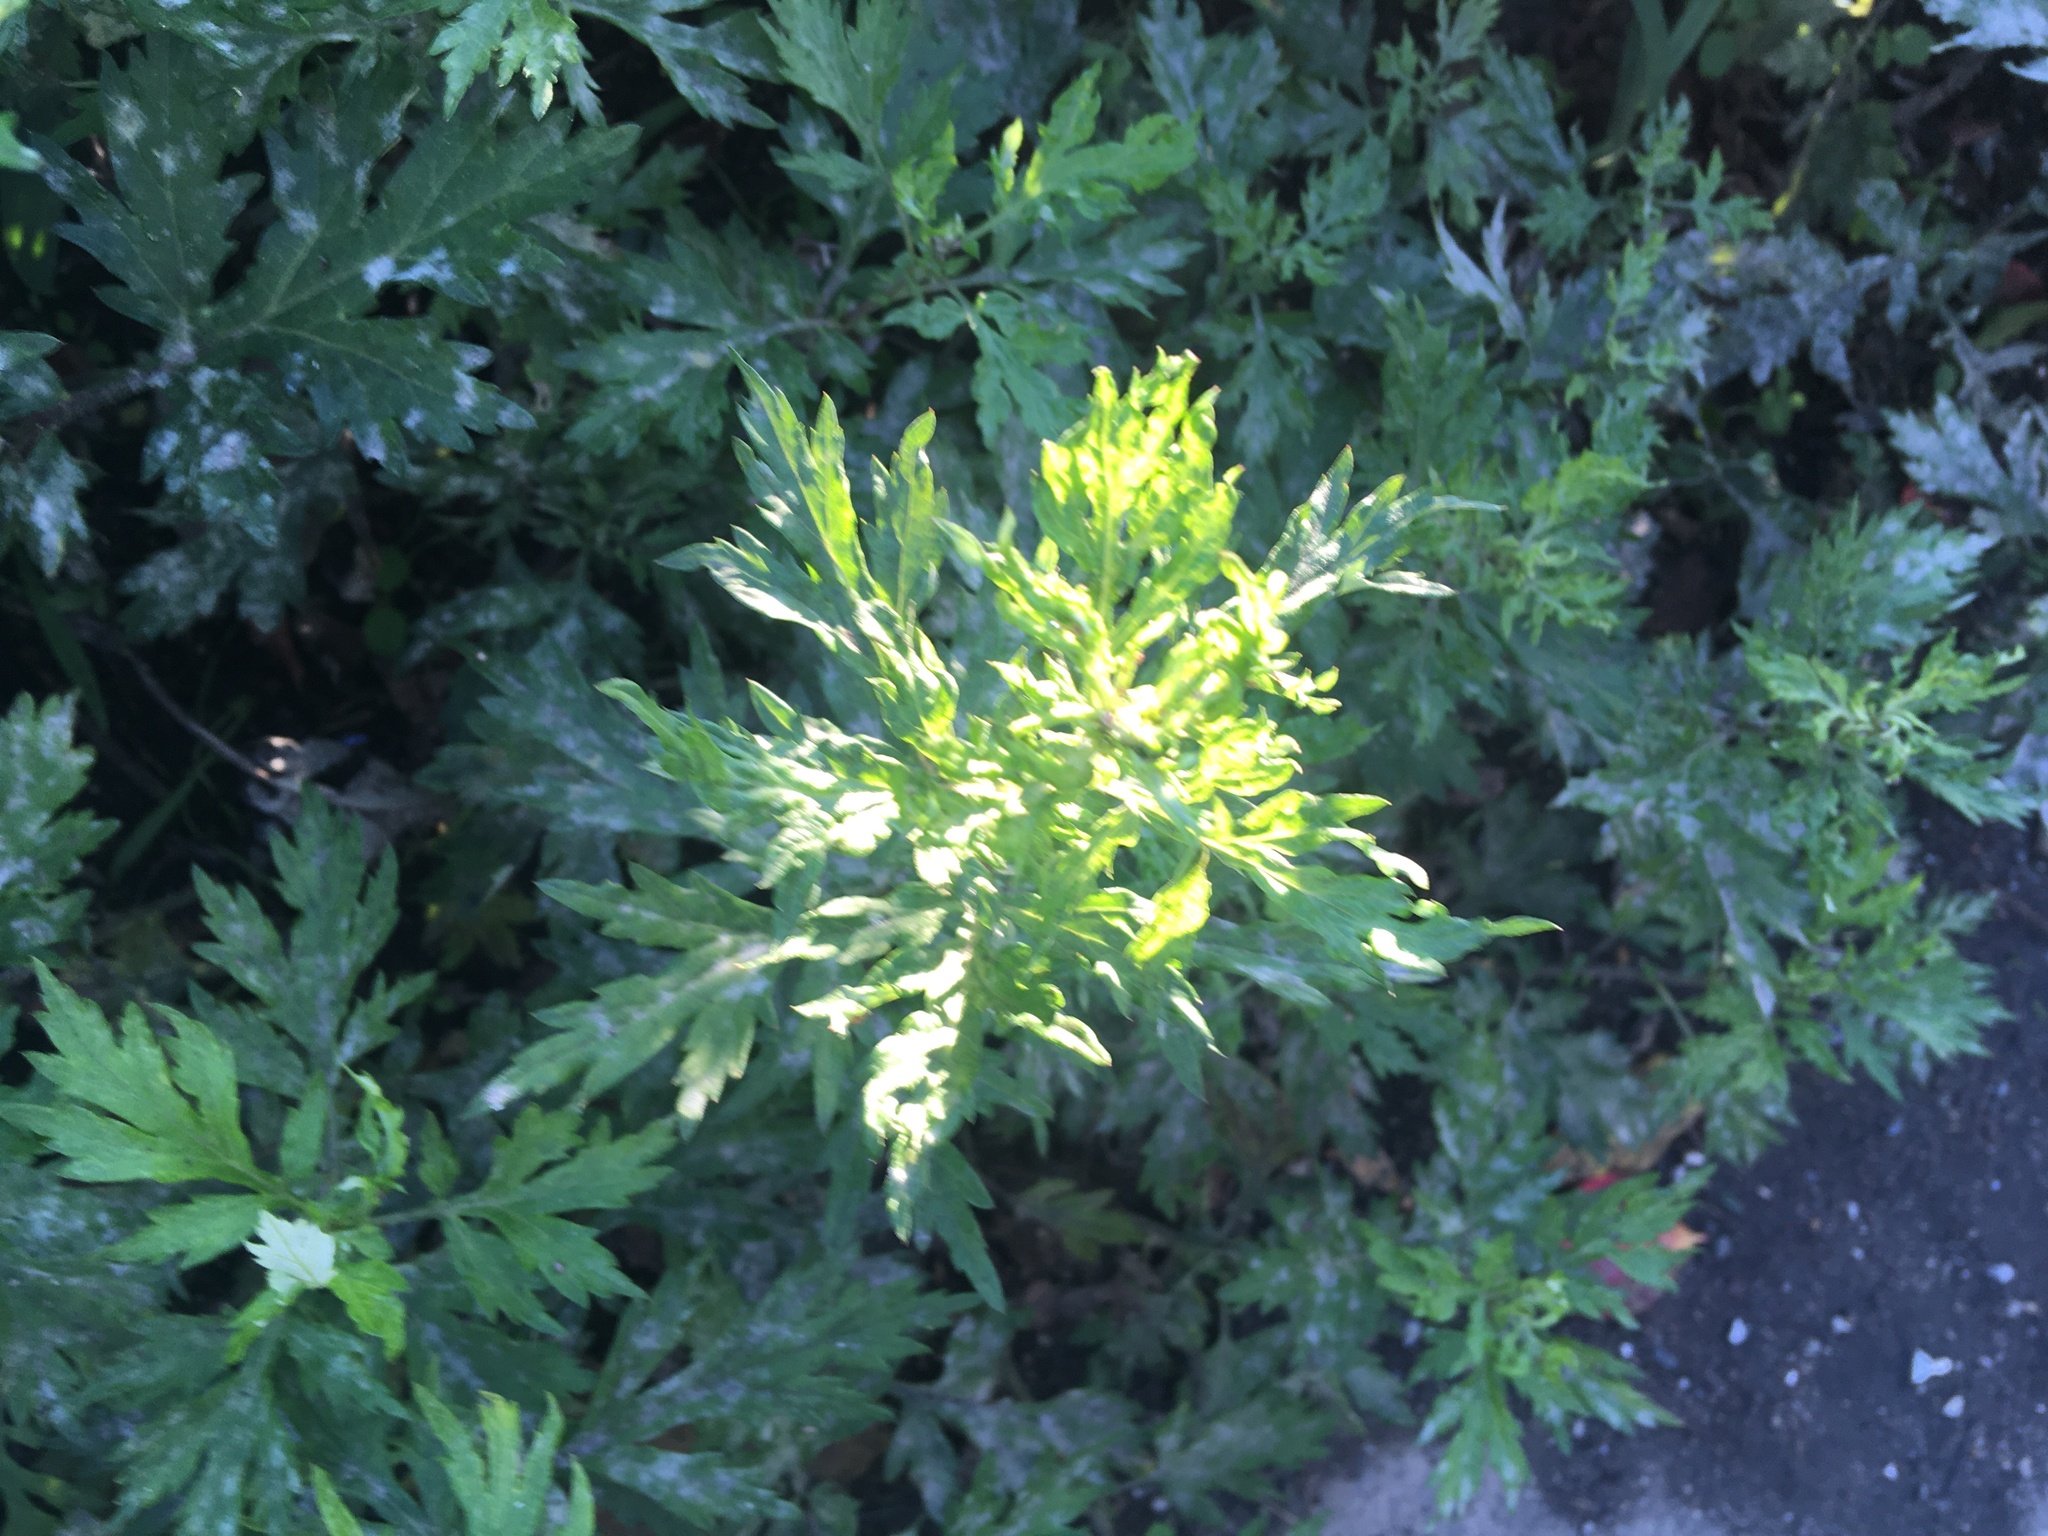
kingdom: Plantae
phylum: Tracheophyta
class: Magnoliopsida
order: Asterales
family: Asteraceae
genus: Artemisia
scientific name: Artemisia vulgaris
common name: Mugwort
